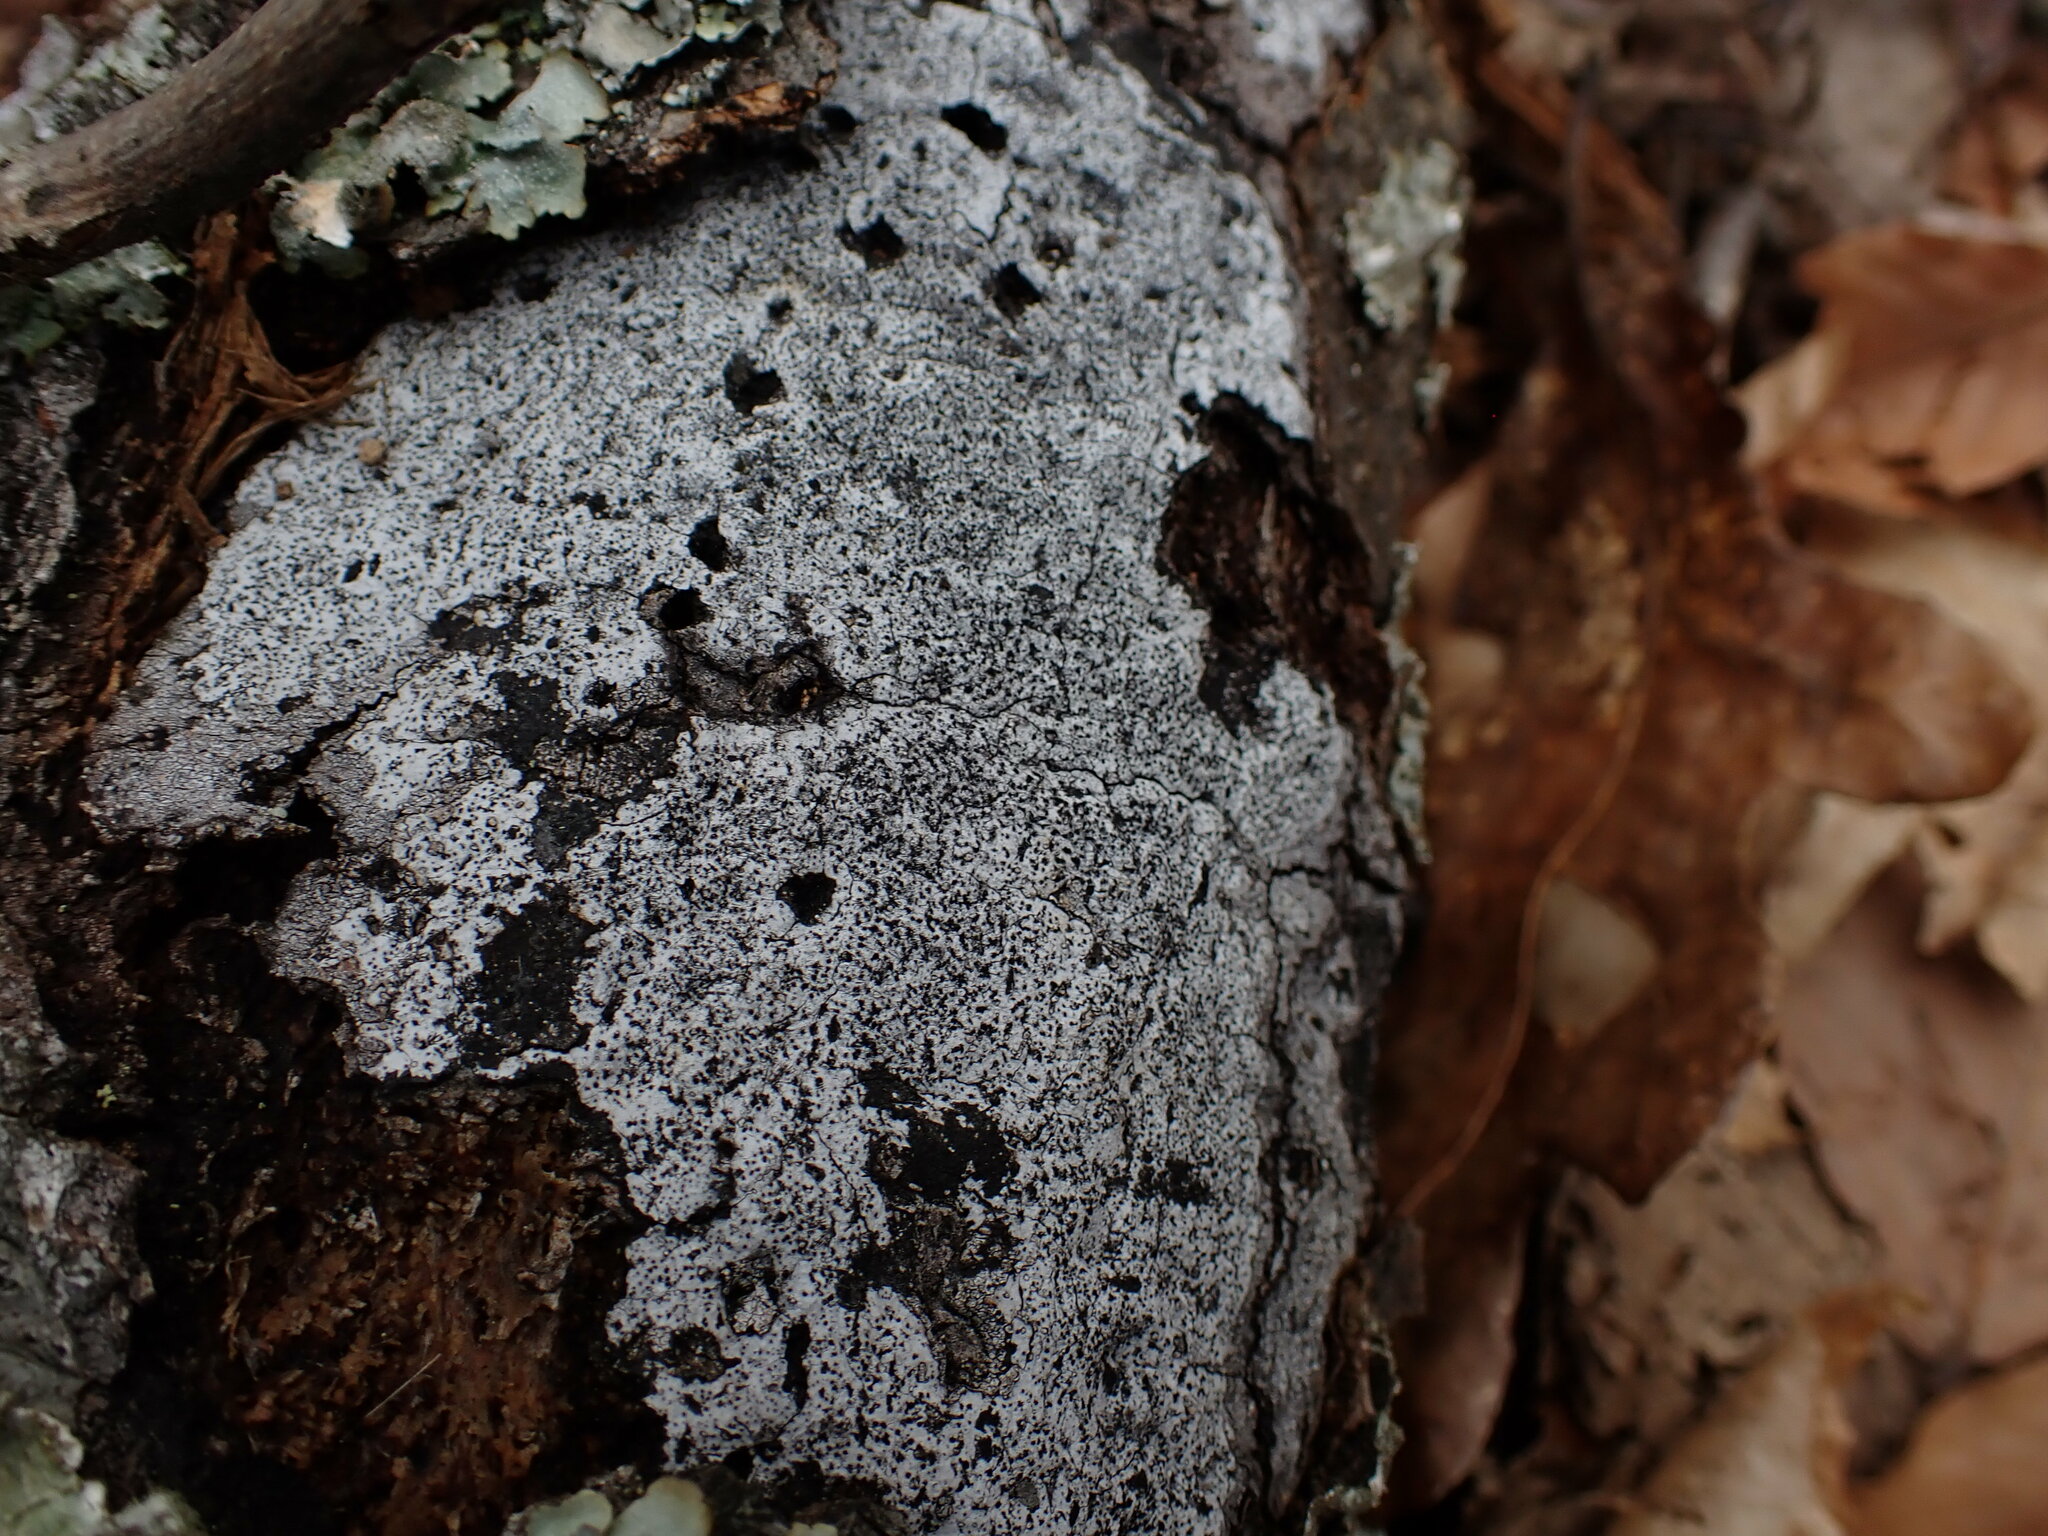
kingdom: Fungi
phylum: Ascomycota
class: Sordariomycetes
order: Xylariales
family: Graphostromataceae
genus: Biscogniauxia
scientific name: Biscogniauxia atropunctata
